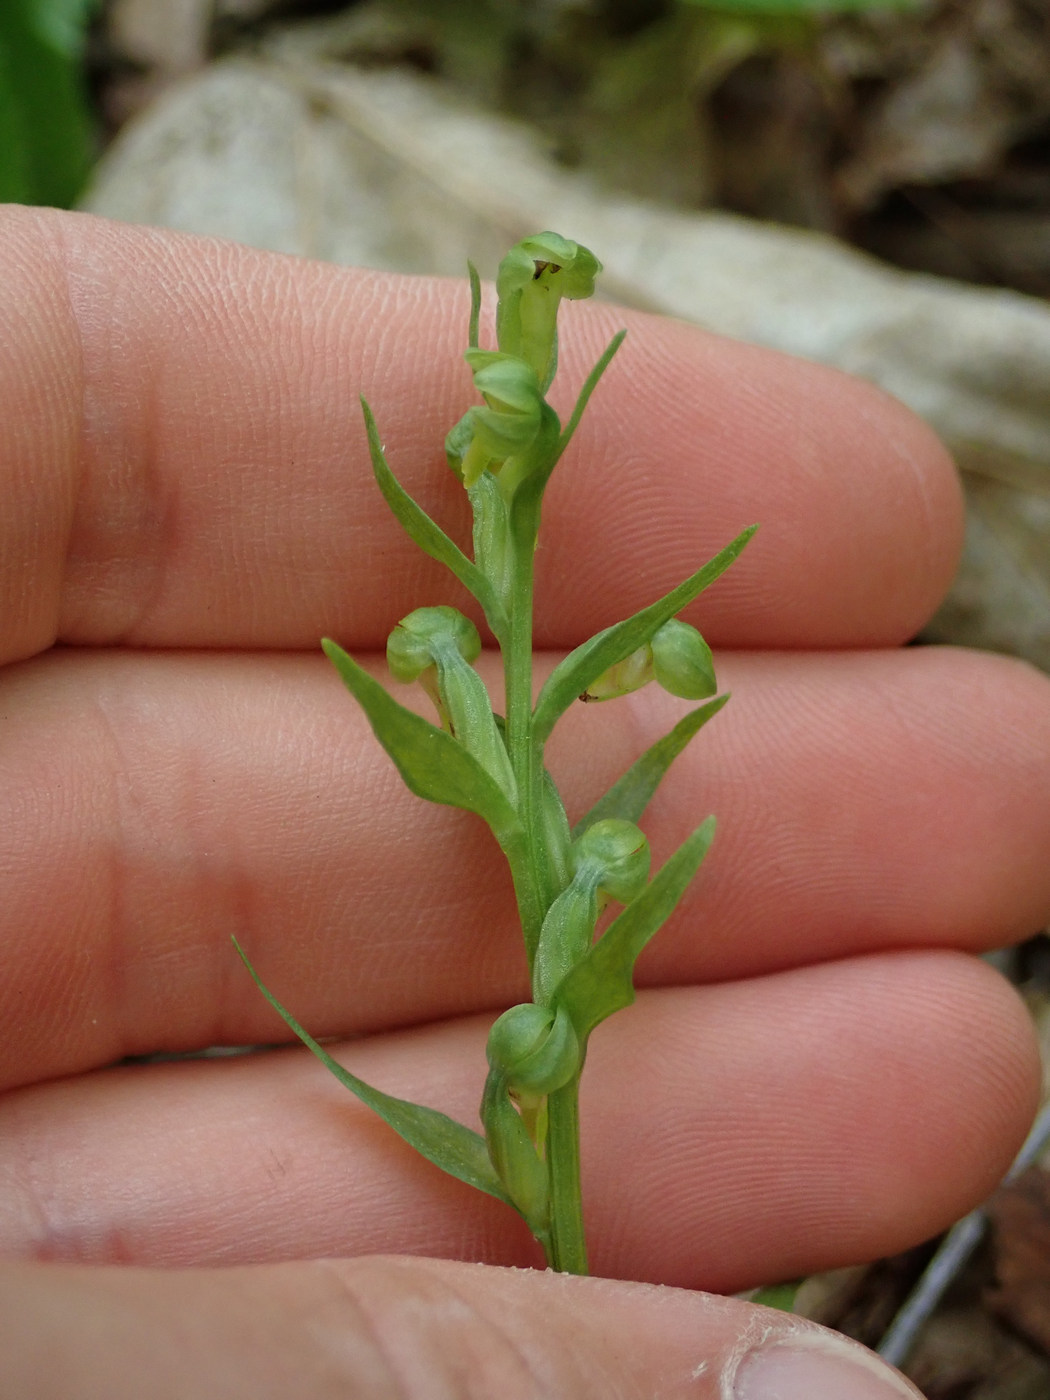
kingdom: Plantae
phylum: Tracheophyta
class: Liliopsida
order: Asparagales
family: Orchidaceae
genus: Dactylorhiza
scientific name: Dactylorhiza viridis
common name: Longbract frog orchid
